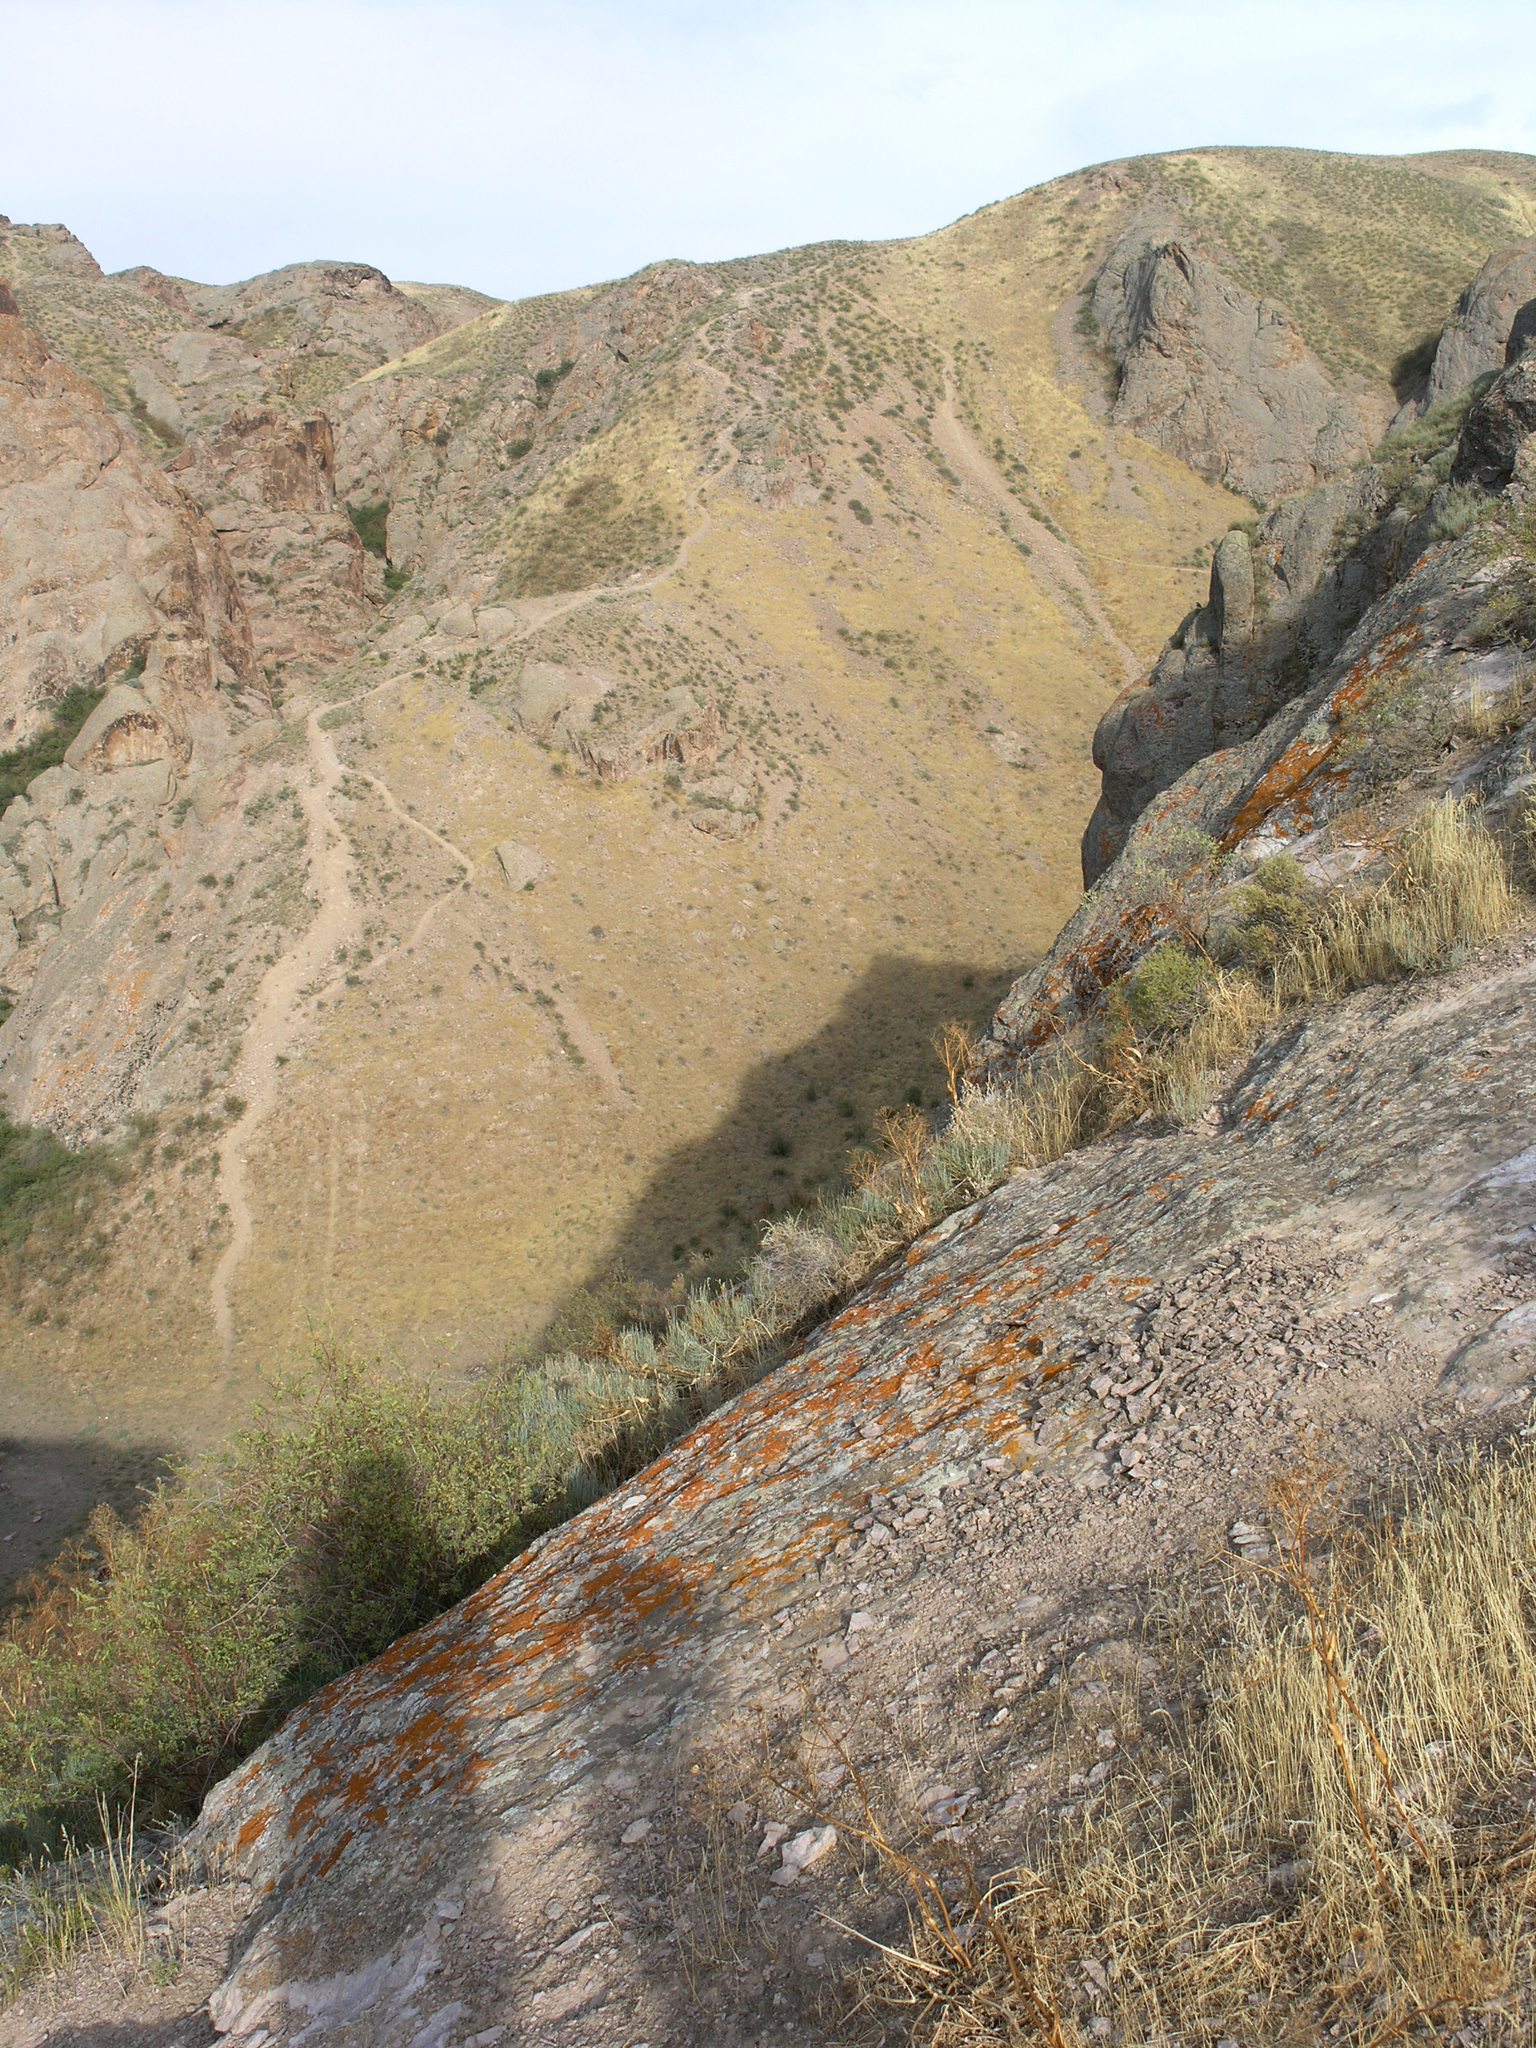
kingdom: Plantae
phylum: Tracheophyta
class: Magnoliopsida
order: Rosales
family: Rosaceae
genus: Spiraea
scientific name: Spiraea hypericifolia
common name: Iberian spirea
